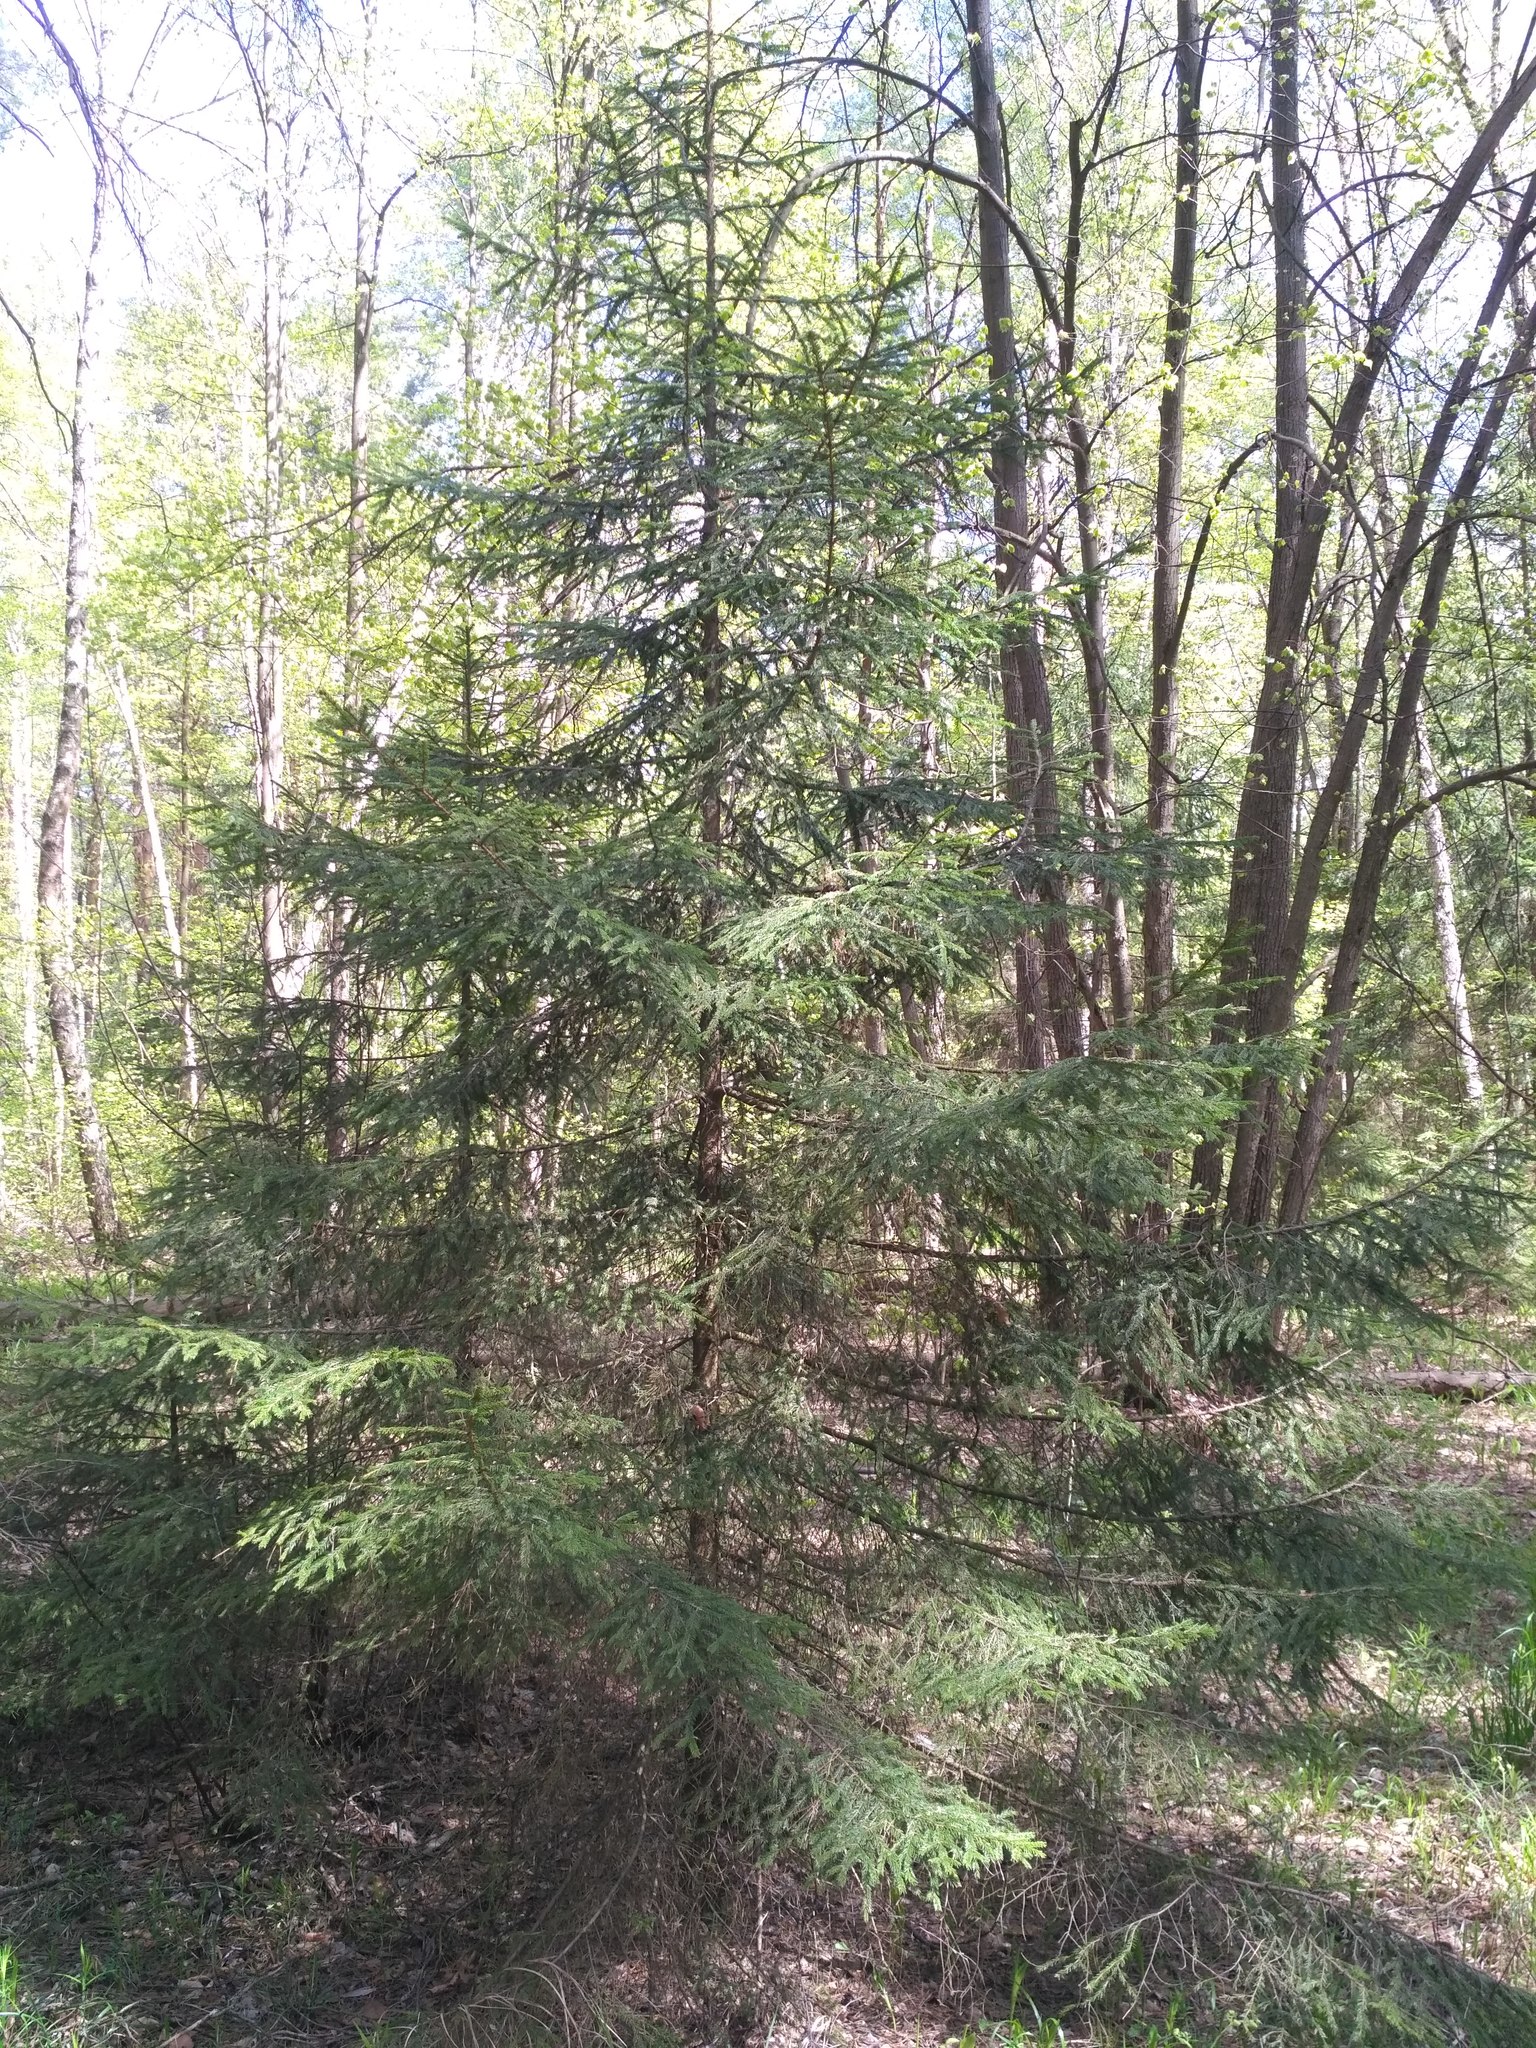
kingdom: Plantae
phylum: Tracheophyta
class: Pinopsida
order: Pinales
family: Pinaceae
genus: Picea
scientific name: Picea abies
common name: Norway spruce
